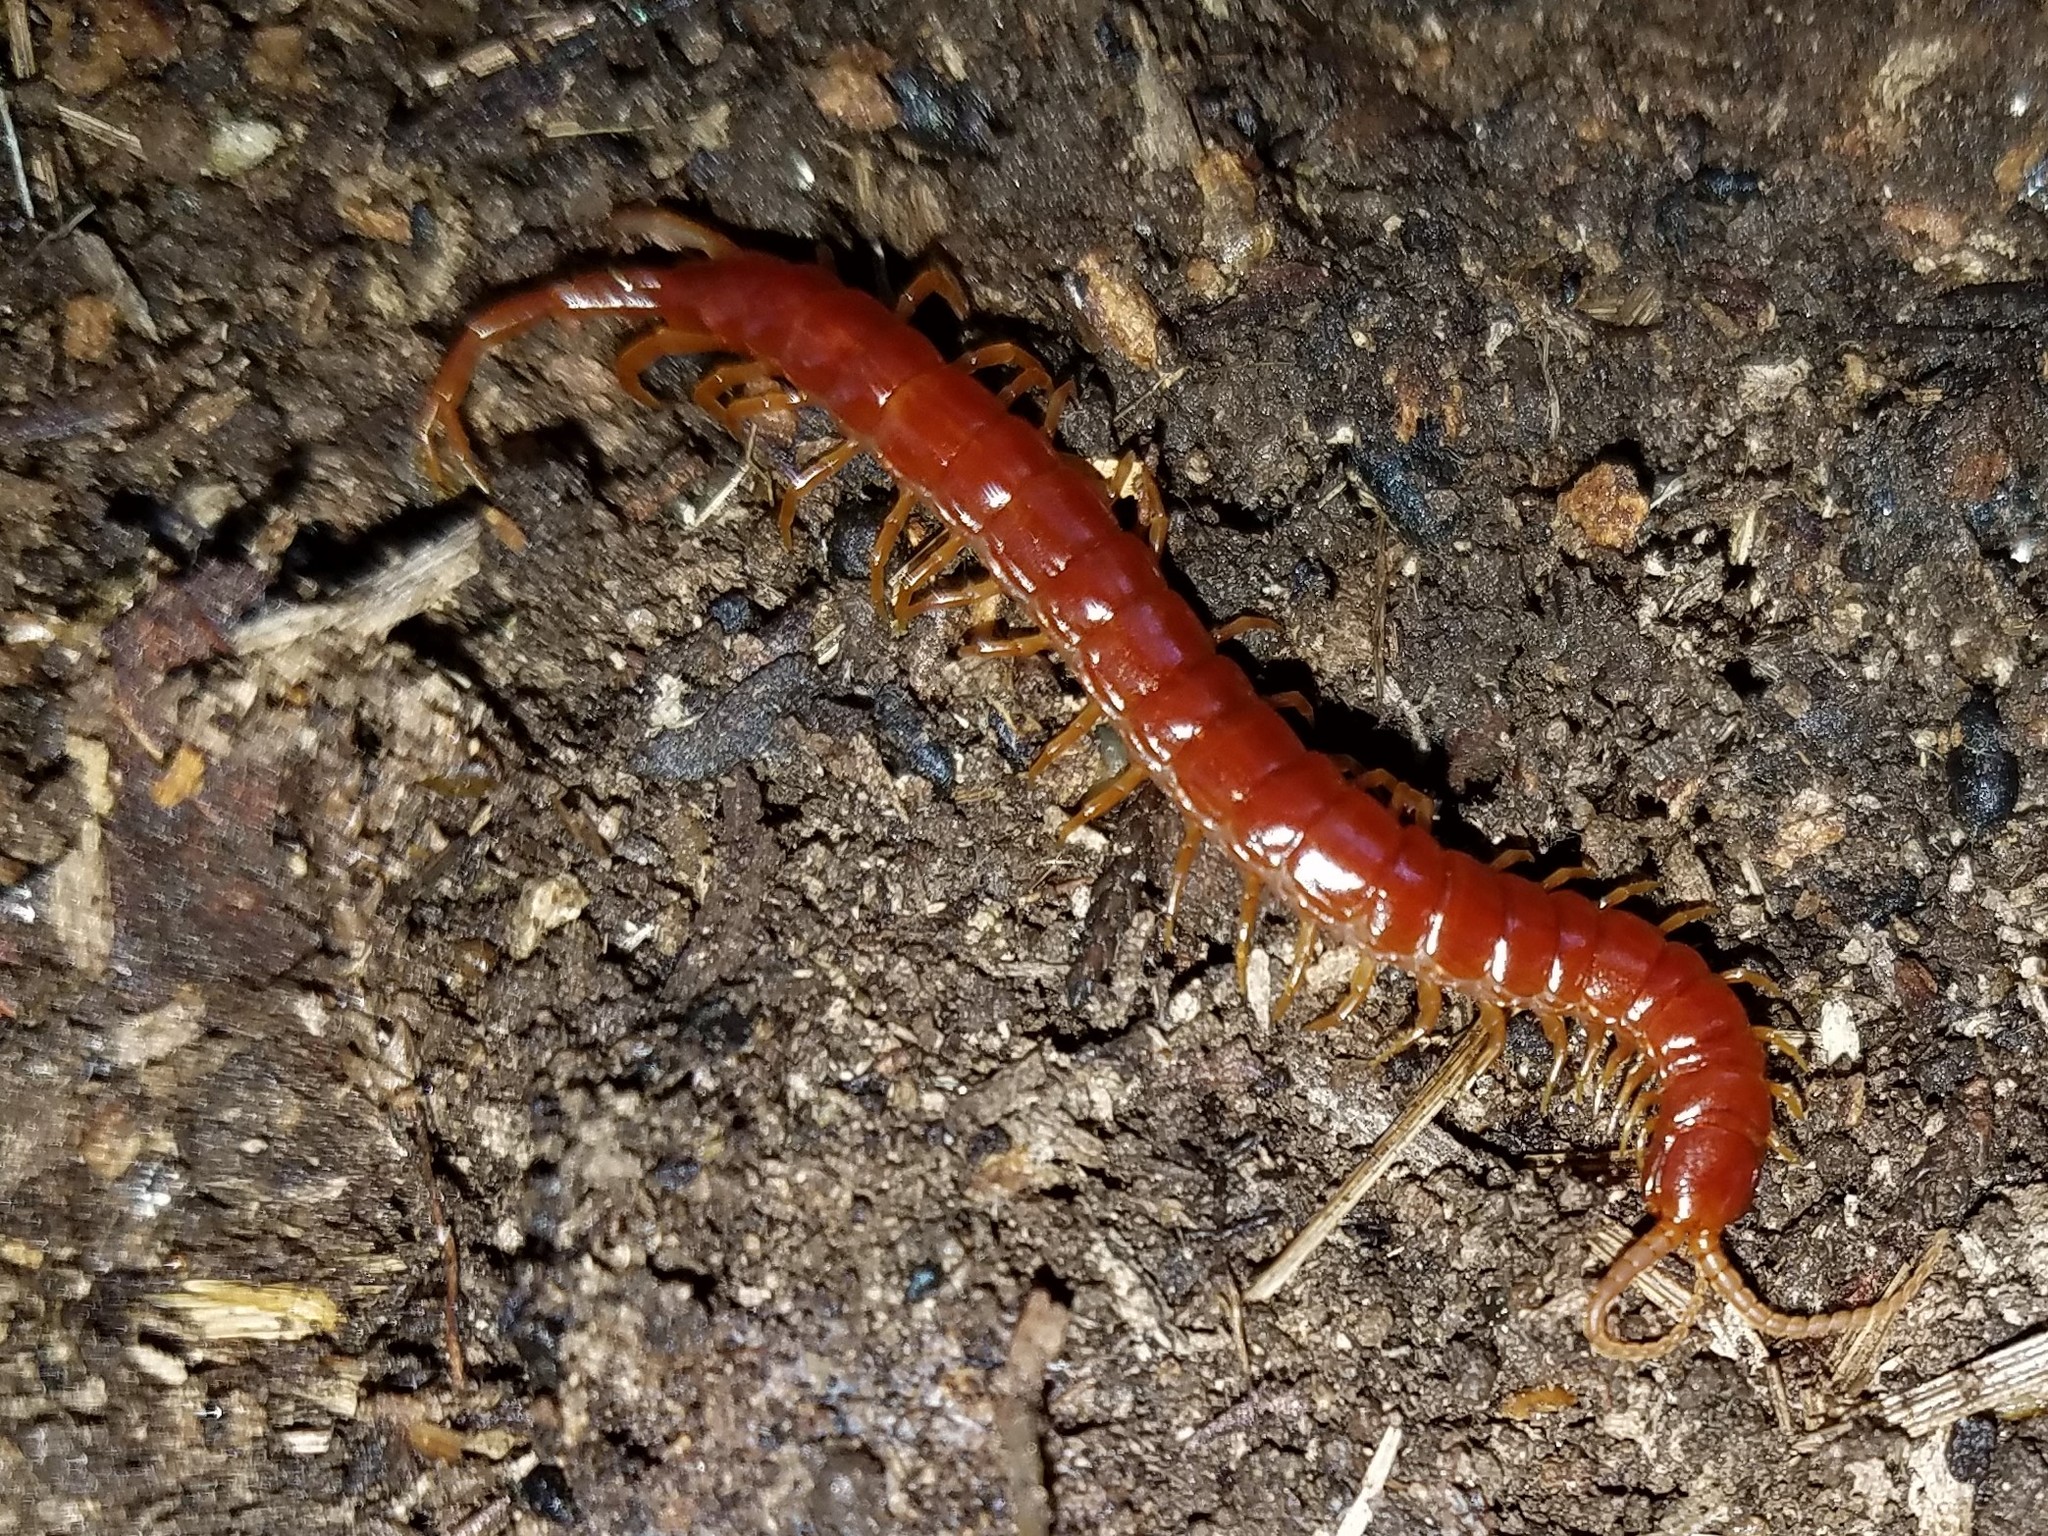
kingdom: Animalia
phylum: Arthropoda
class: Chilopoda
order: Scolopendromorpha
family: Scolopocryptopidae
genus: Scolopocryptops
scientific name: Scolopocryptops sexspinosus
